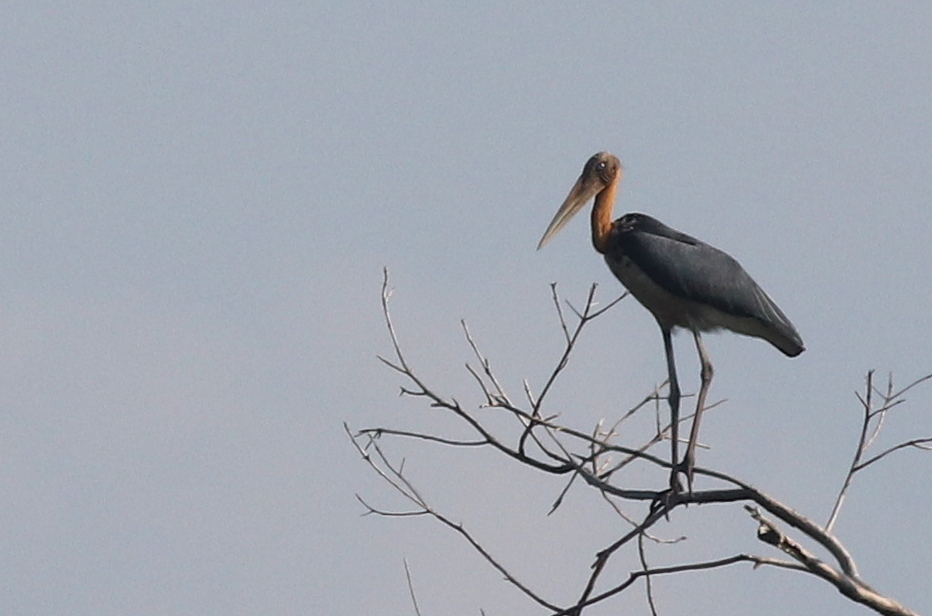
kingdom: Animalia
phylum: Chordata
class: Aves
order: Ciconiiformes
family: Ciconiidae
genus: Leptoptilos
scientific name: Leptoptilos javanicus
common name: Lesser adjutant
